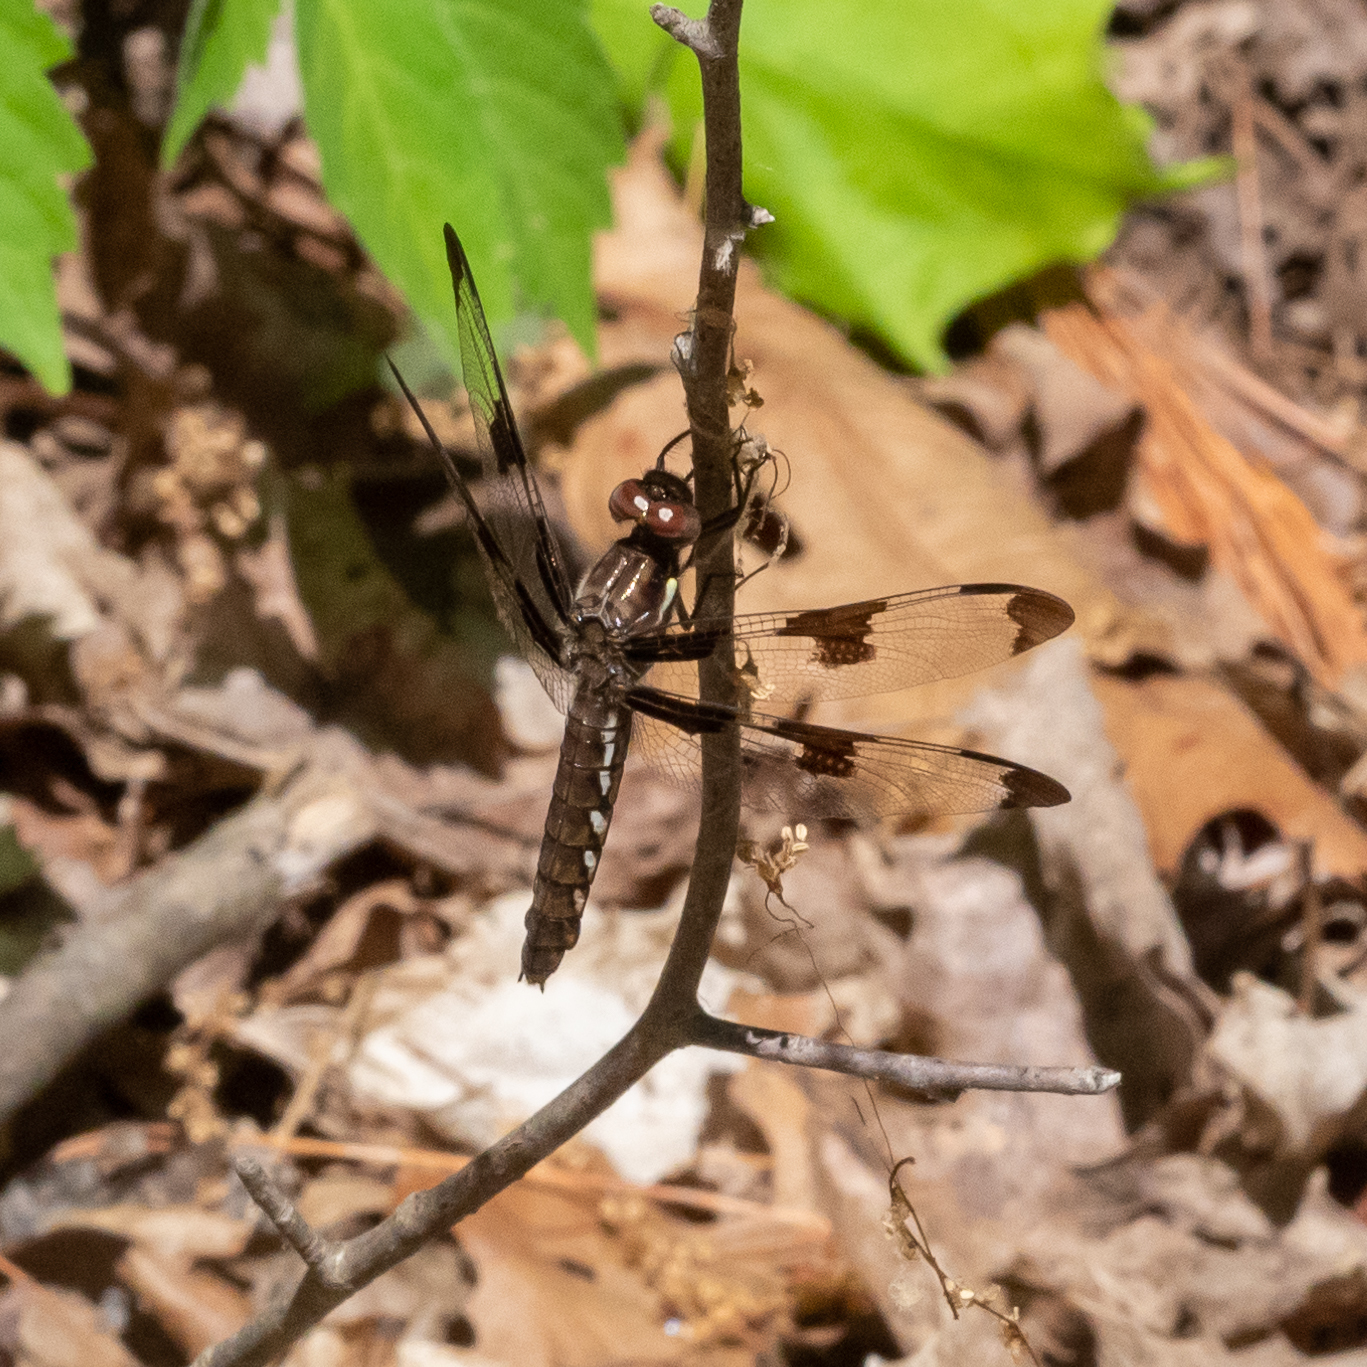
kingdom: Animalia
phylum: Arthropoda
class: Insecta
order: Odonata
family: Libellulidae
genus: Plathemis
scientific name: Plathemis lydia
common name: Common whitetail
